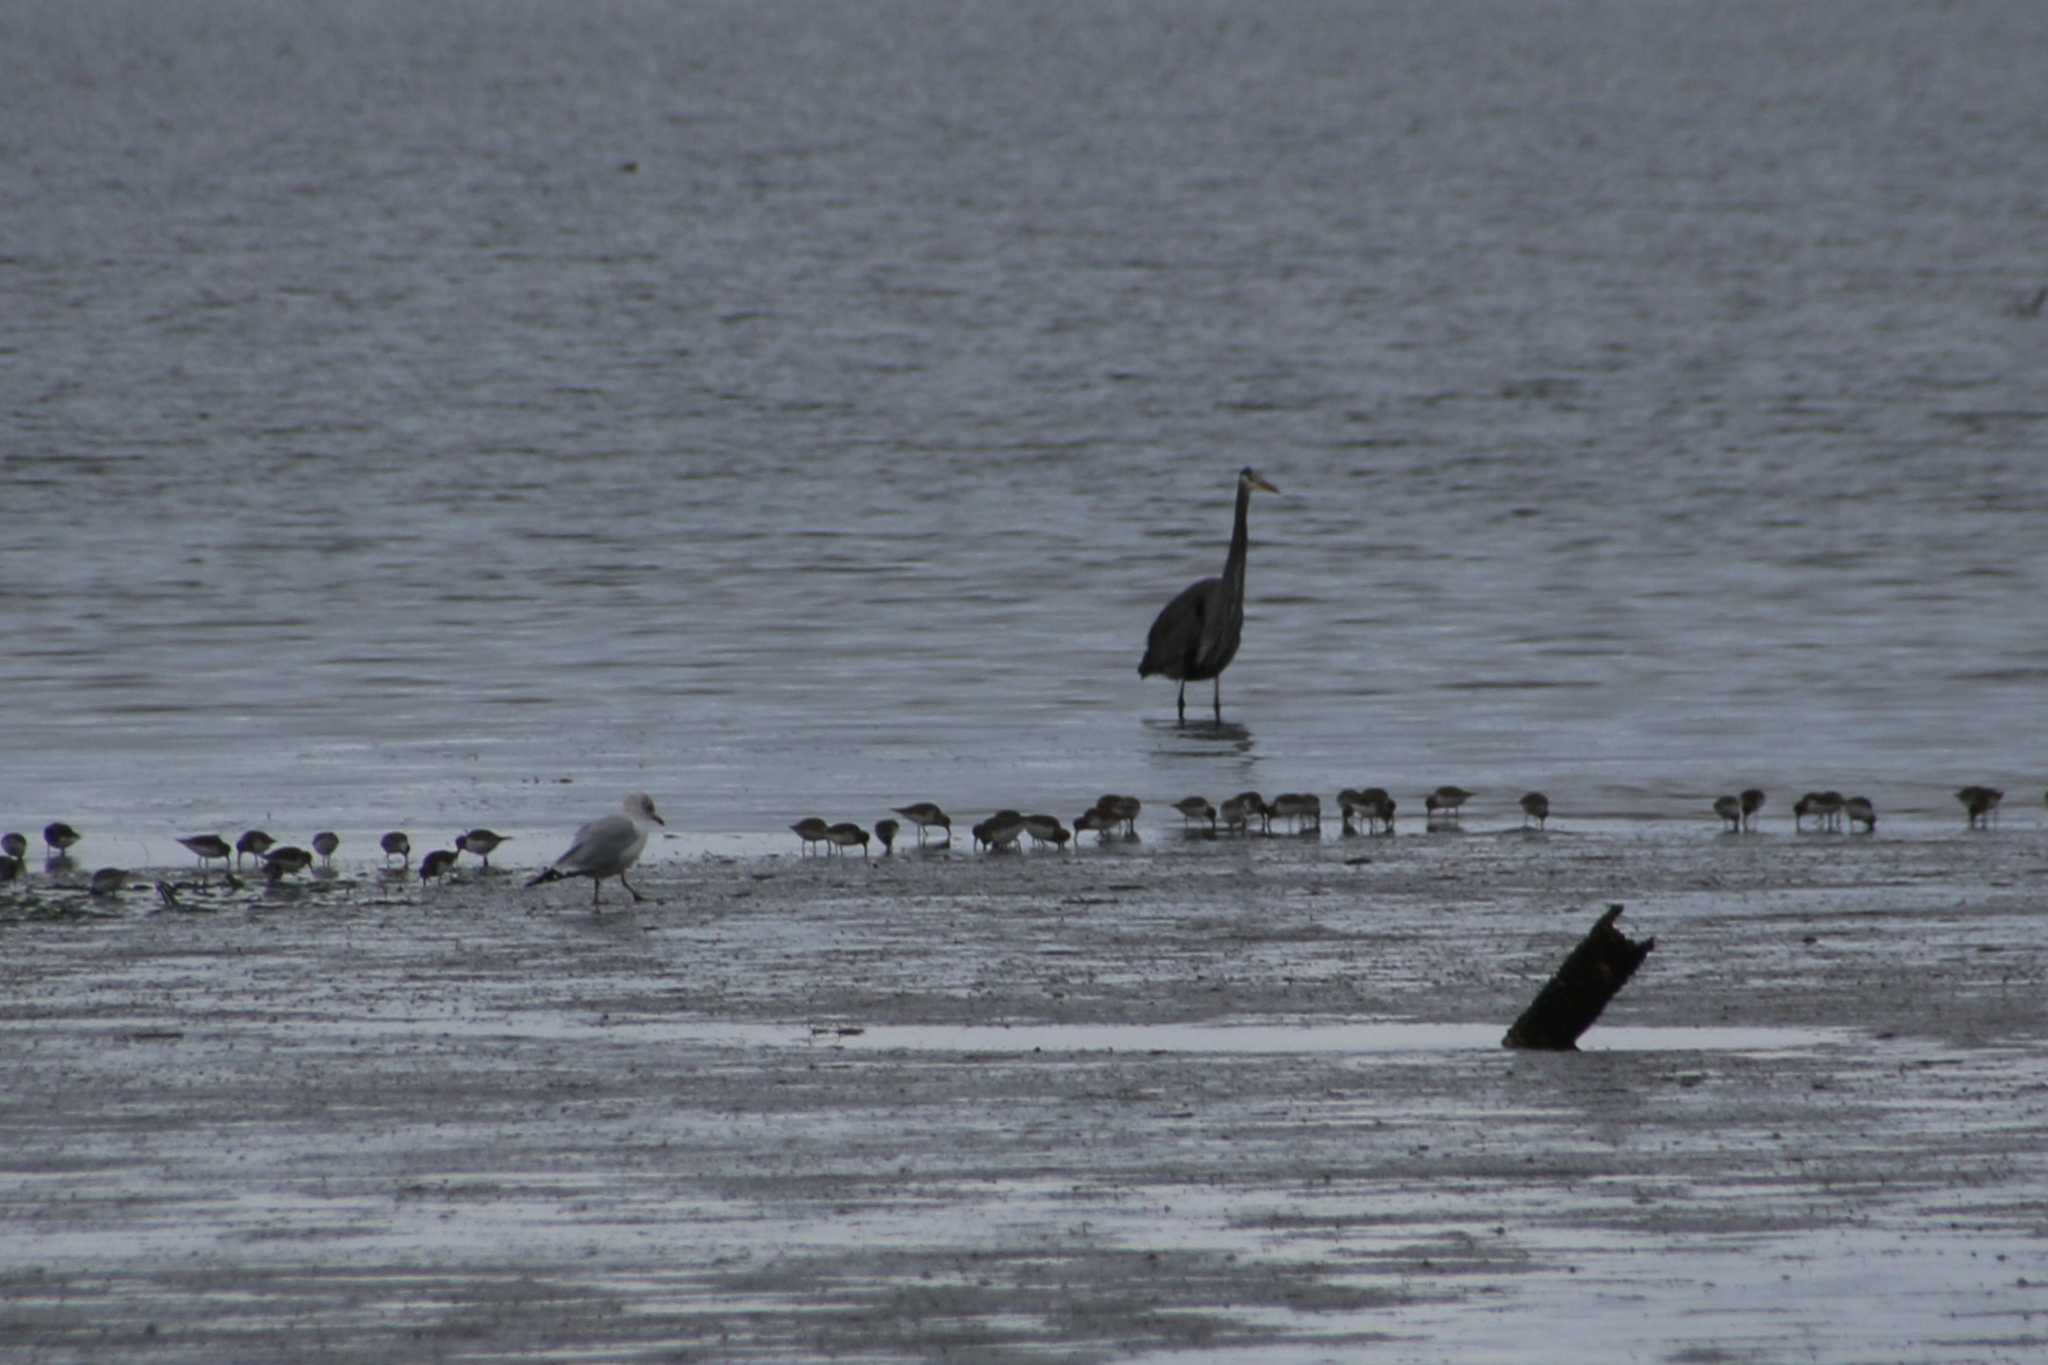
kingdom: Animalia
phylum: Chordata
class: Aves
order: Charadriiformes
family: Scolopacidae
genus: Calidris
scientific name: Calidris alpina
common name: Dunlin
